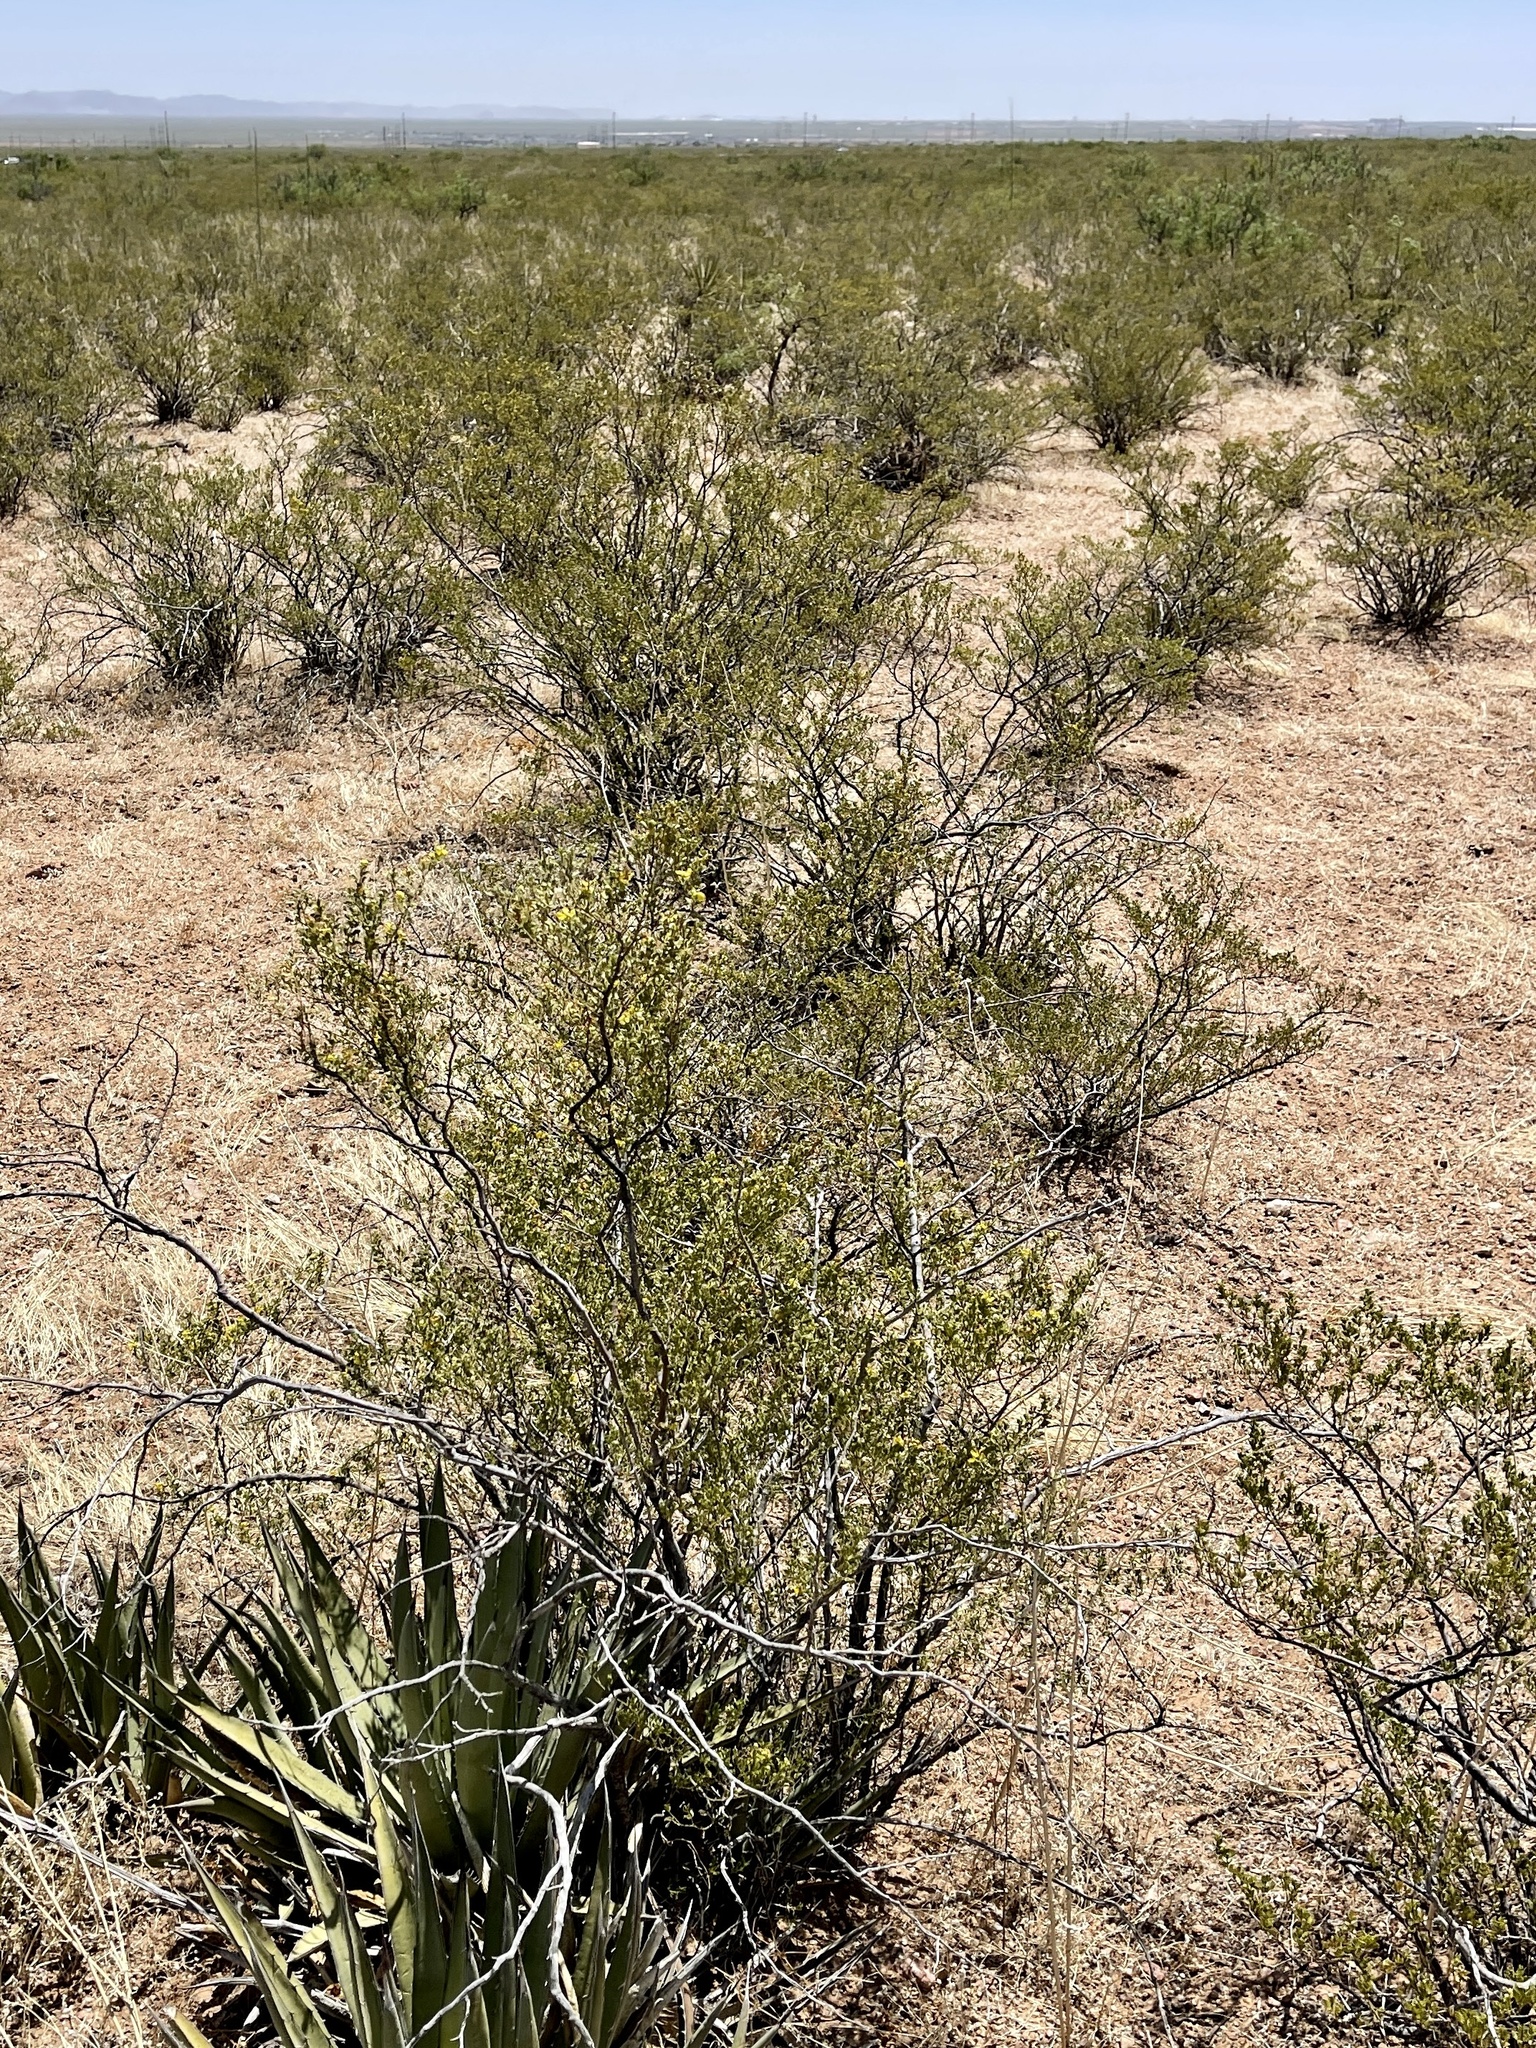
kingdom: Plantae
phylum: Tracheophyta
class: Magnoliopsida
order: Zygophyllales
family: Zygophyllaceae
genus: Larrea
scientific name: Larrea tridentata
